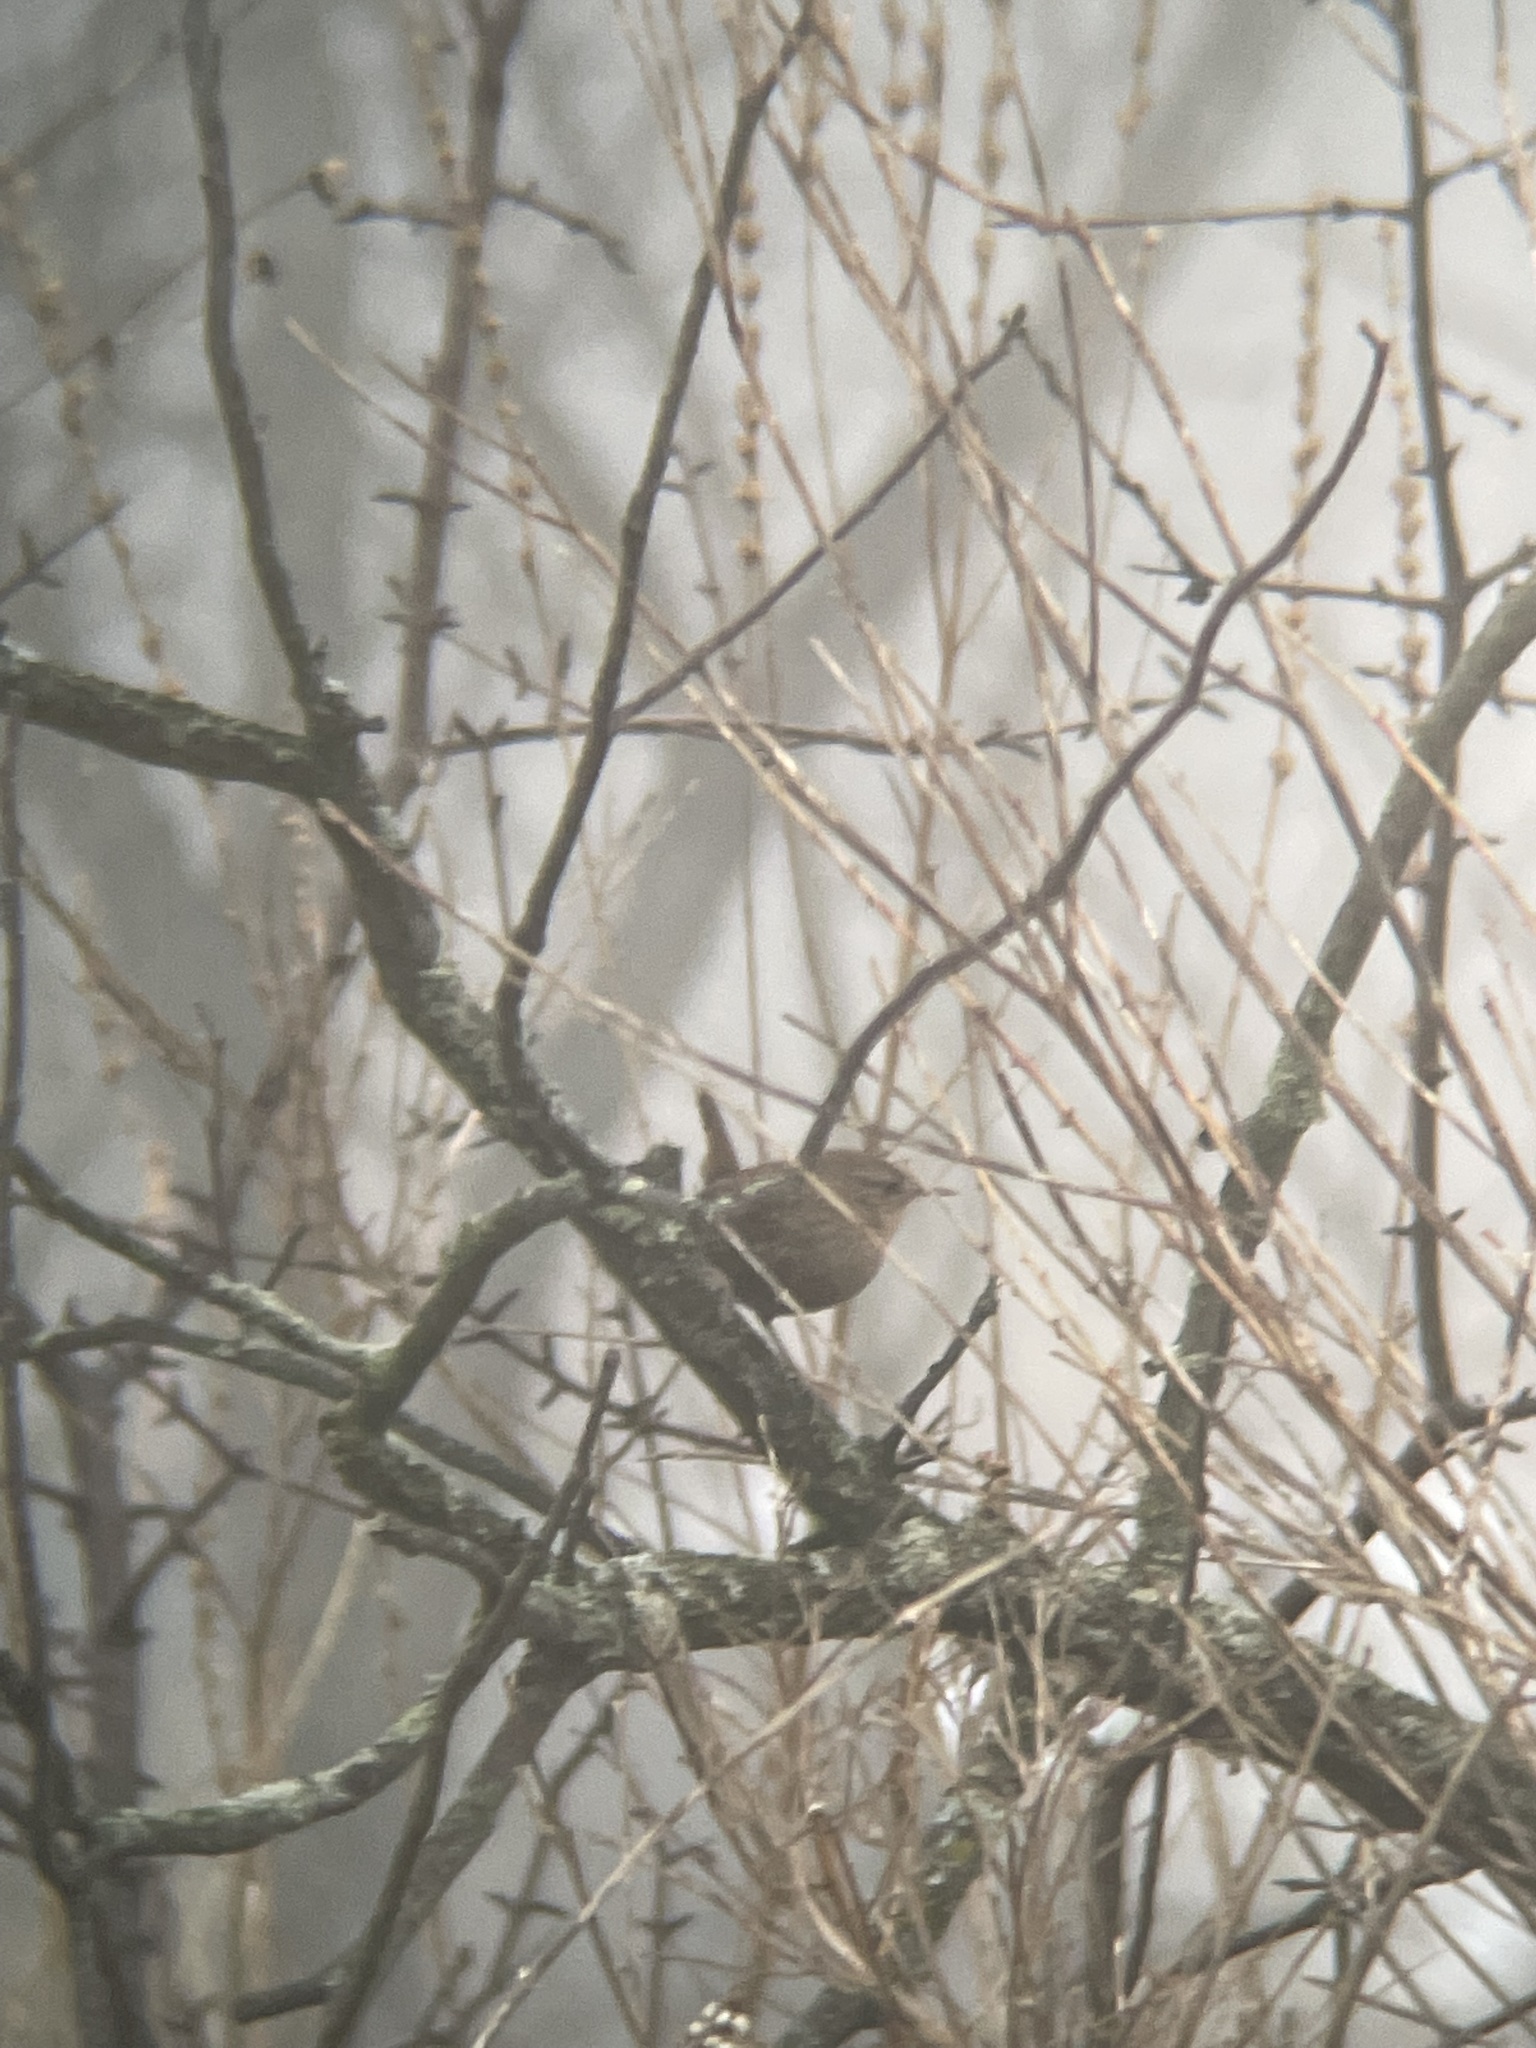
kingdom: Animalia
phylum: Chordata
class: Aves
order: Passeriformes
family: Troglodytidae
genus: Troglodytes
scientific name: Troglodytes hiemalis
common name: Winter wren
